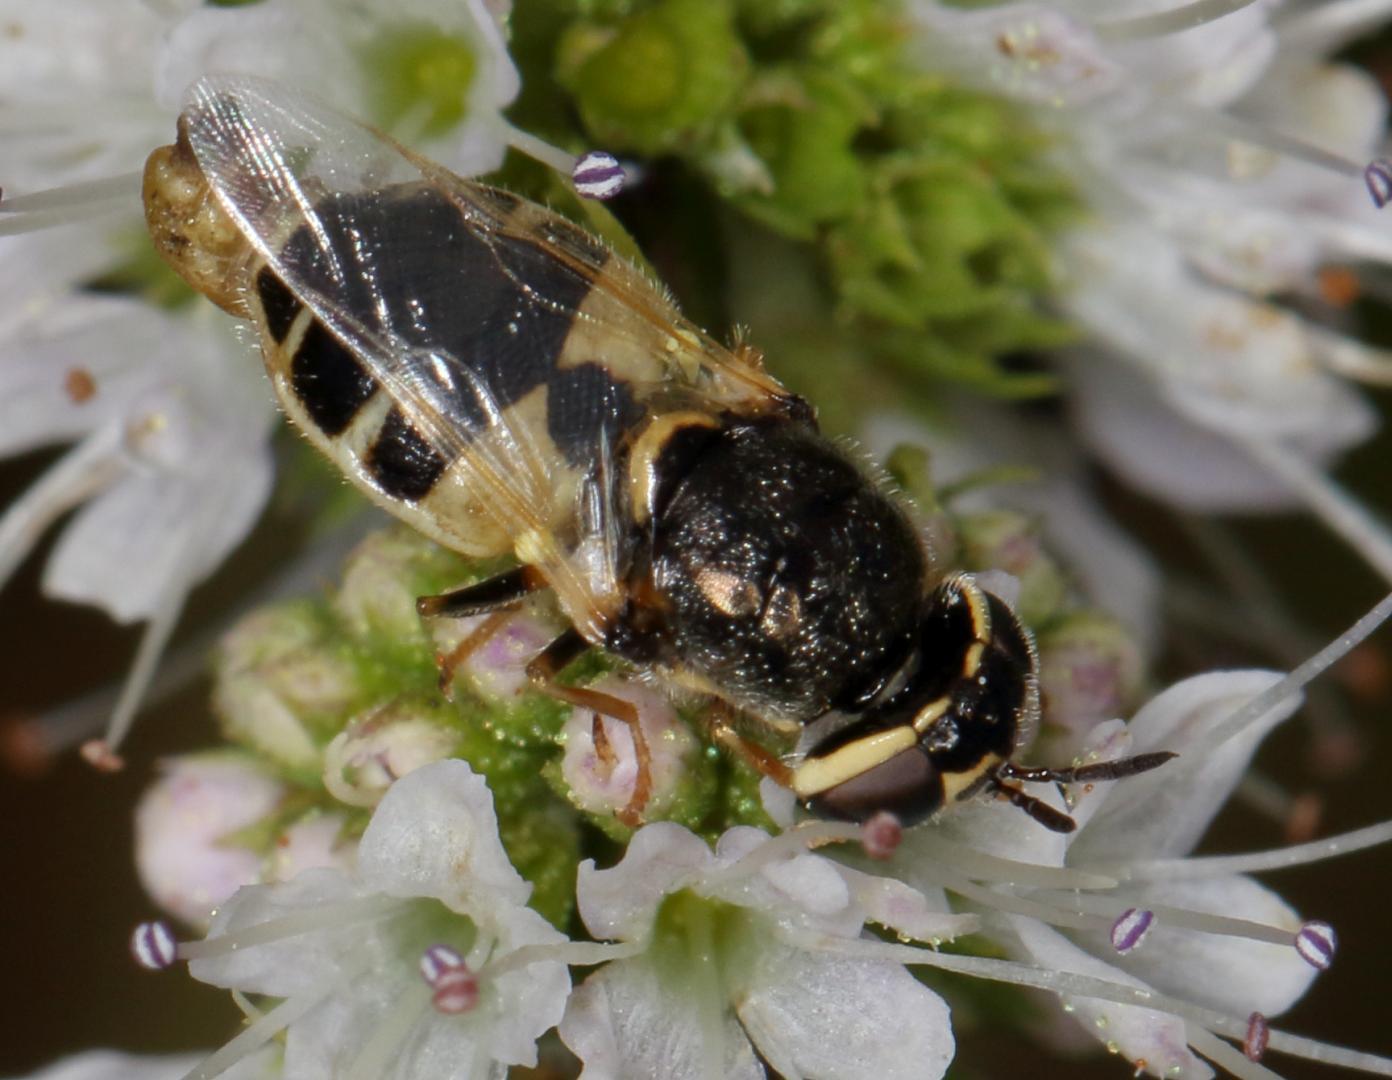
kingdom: Animalia
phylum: Arthropoda
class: Insecta
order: Diptera
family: Stratiomyidae
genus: Oplodontha
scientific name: Oplodontha pulchriceps
